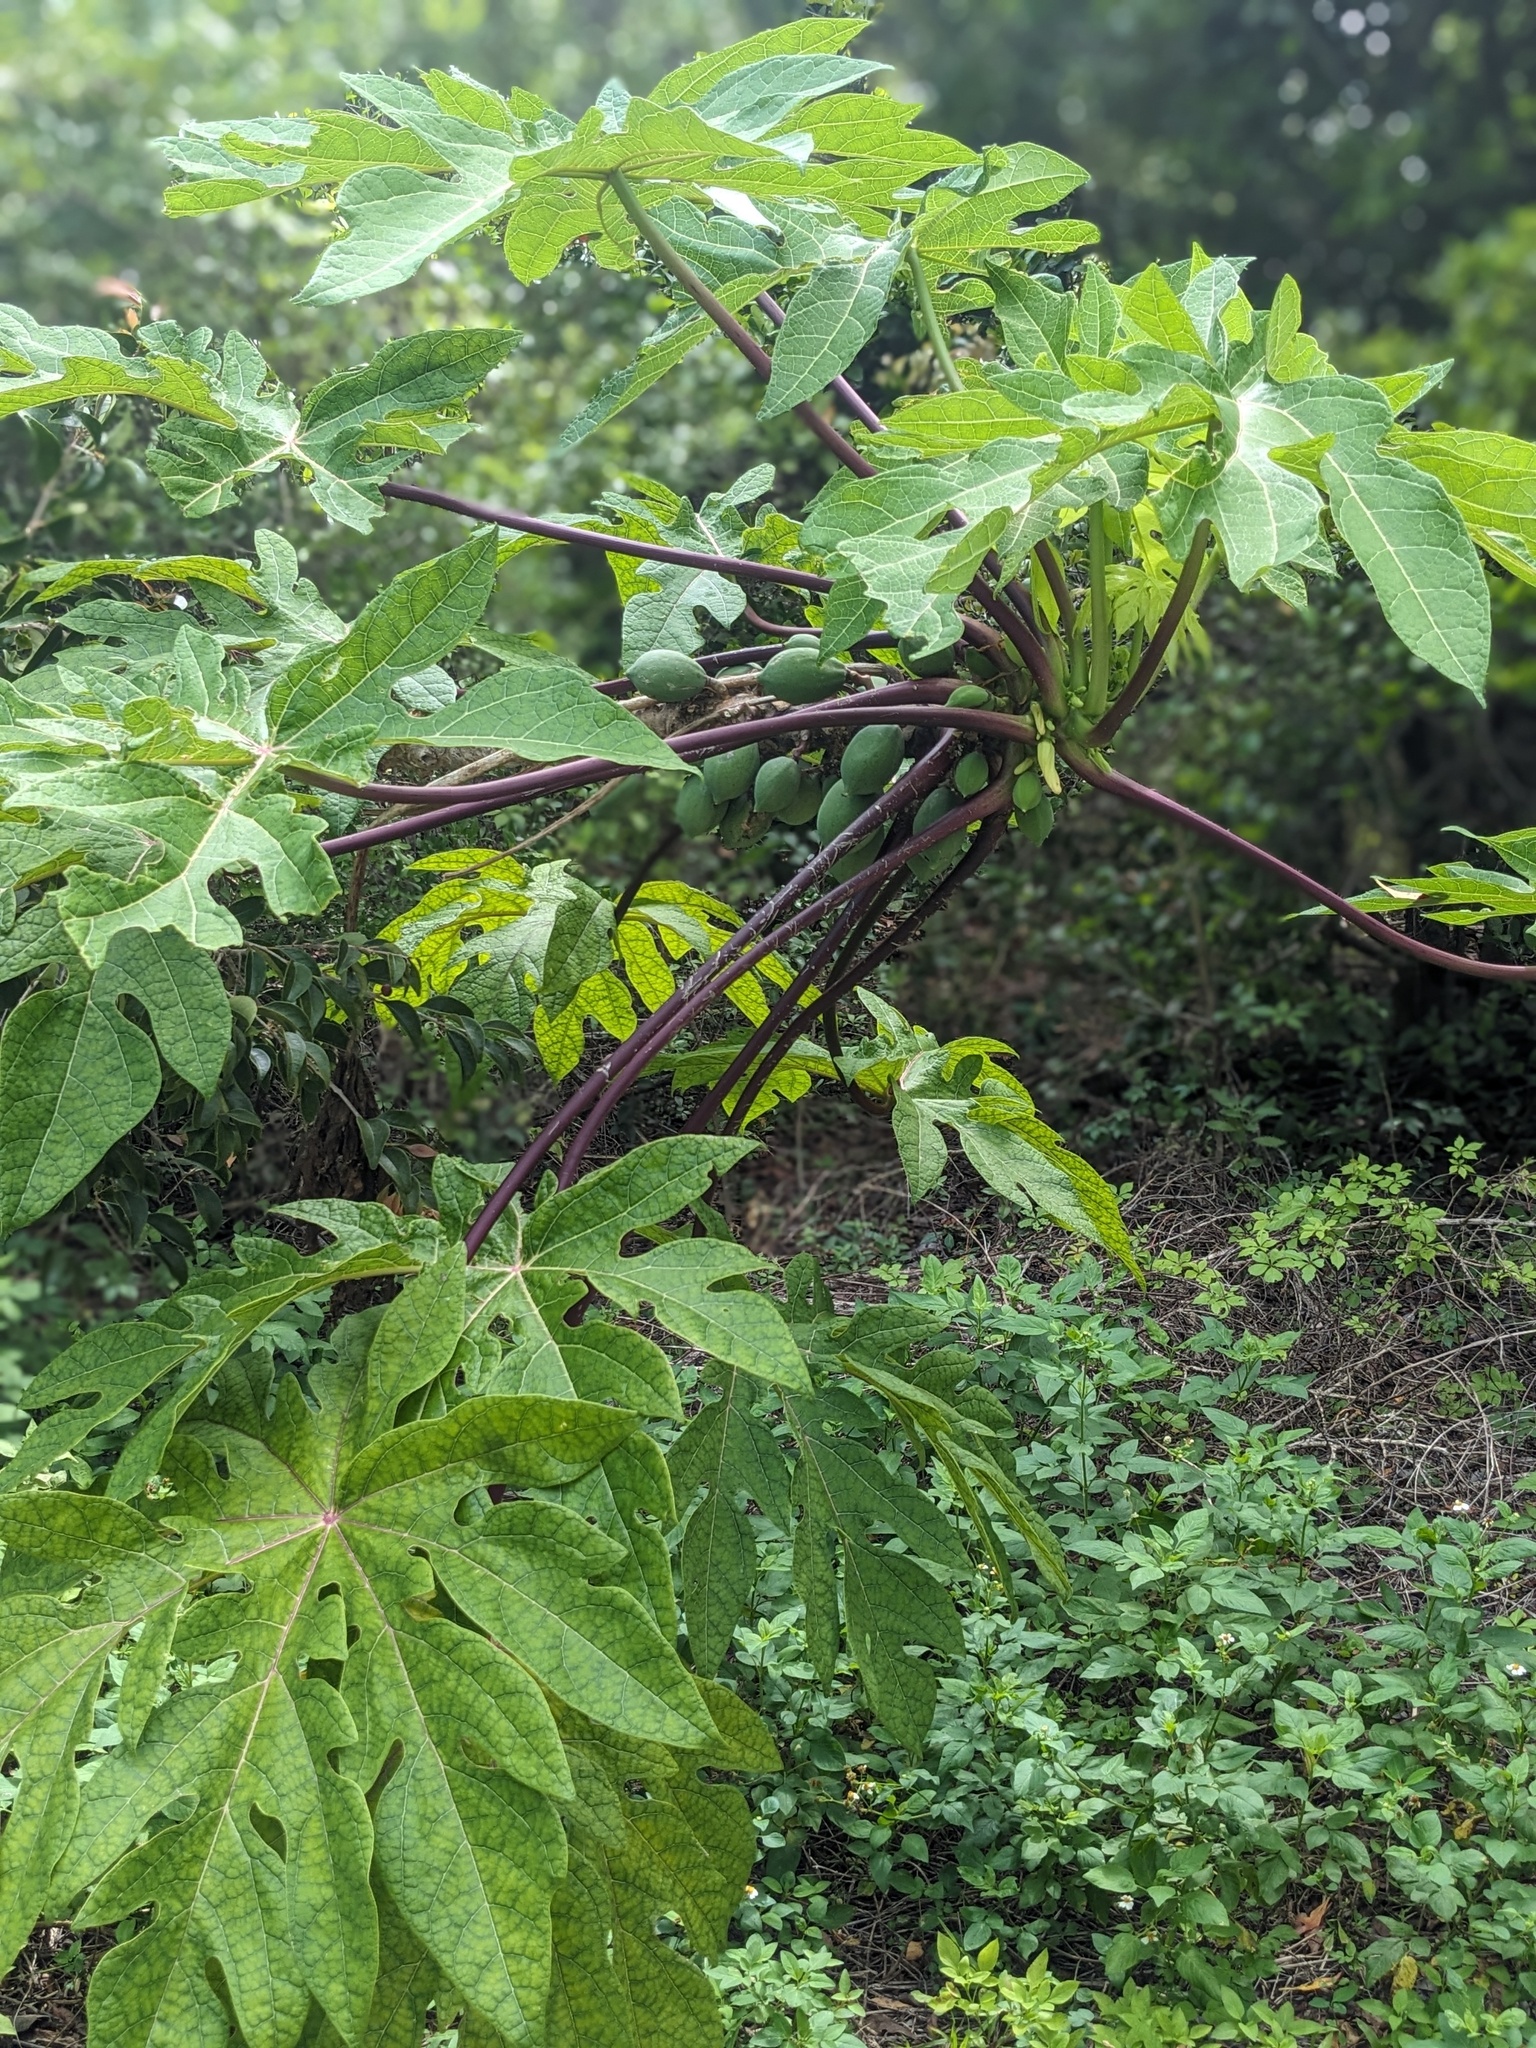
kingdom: Plantae
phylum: Tracheophyta
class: Magnoliopsida
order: Brassicales
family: Caricaceae
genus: Carica
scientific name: Carica papaya
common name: Papaya
